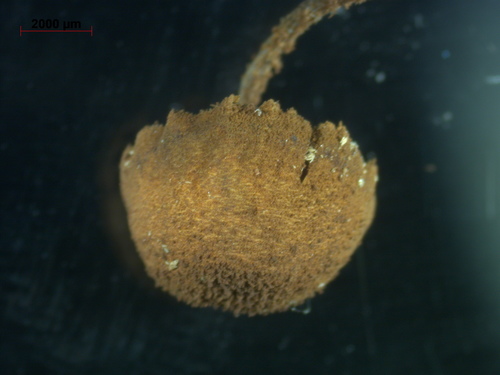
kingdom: Fungi
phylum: Basidiomycota
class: Agaricomycetes
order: Agaricales
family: Tubariaceae
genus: Flammulaster
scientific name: Flammulaster limulatus
